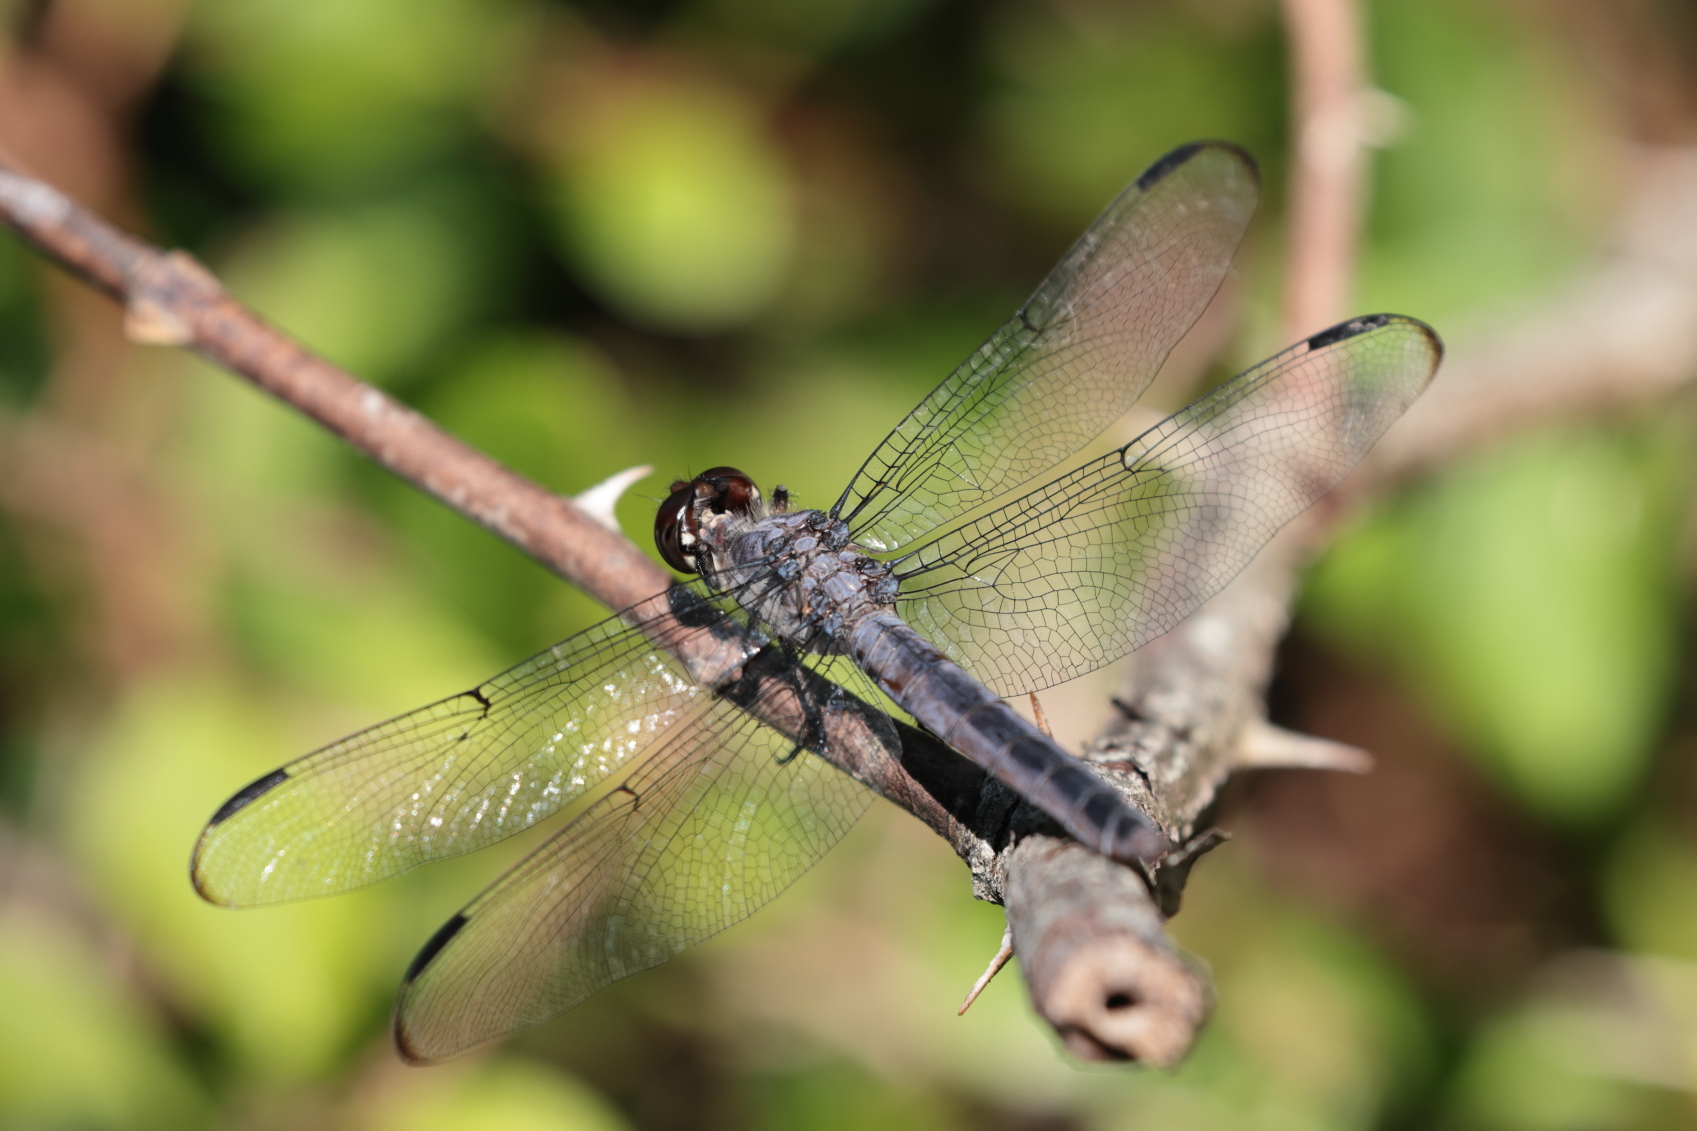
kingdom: Animalia
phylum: Arthropoda
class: Insecta
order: Odonata
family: Libellulidae
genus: Libellula
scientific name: Libellula incesta
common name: Slaty skimmer
